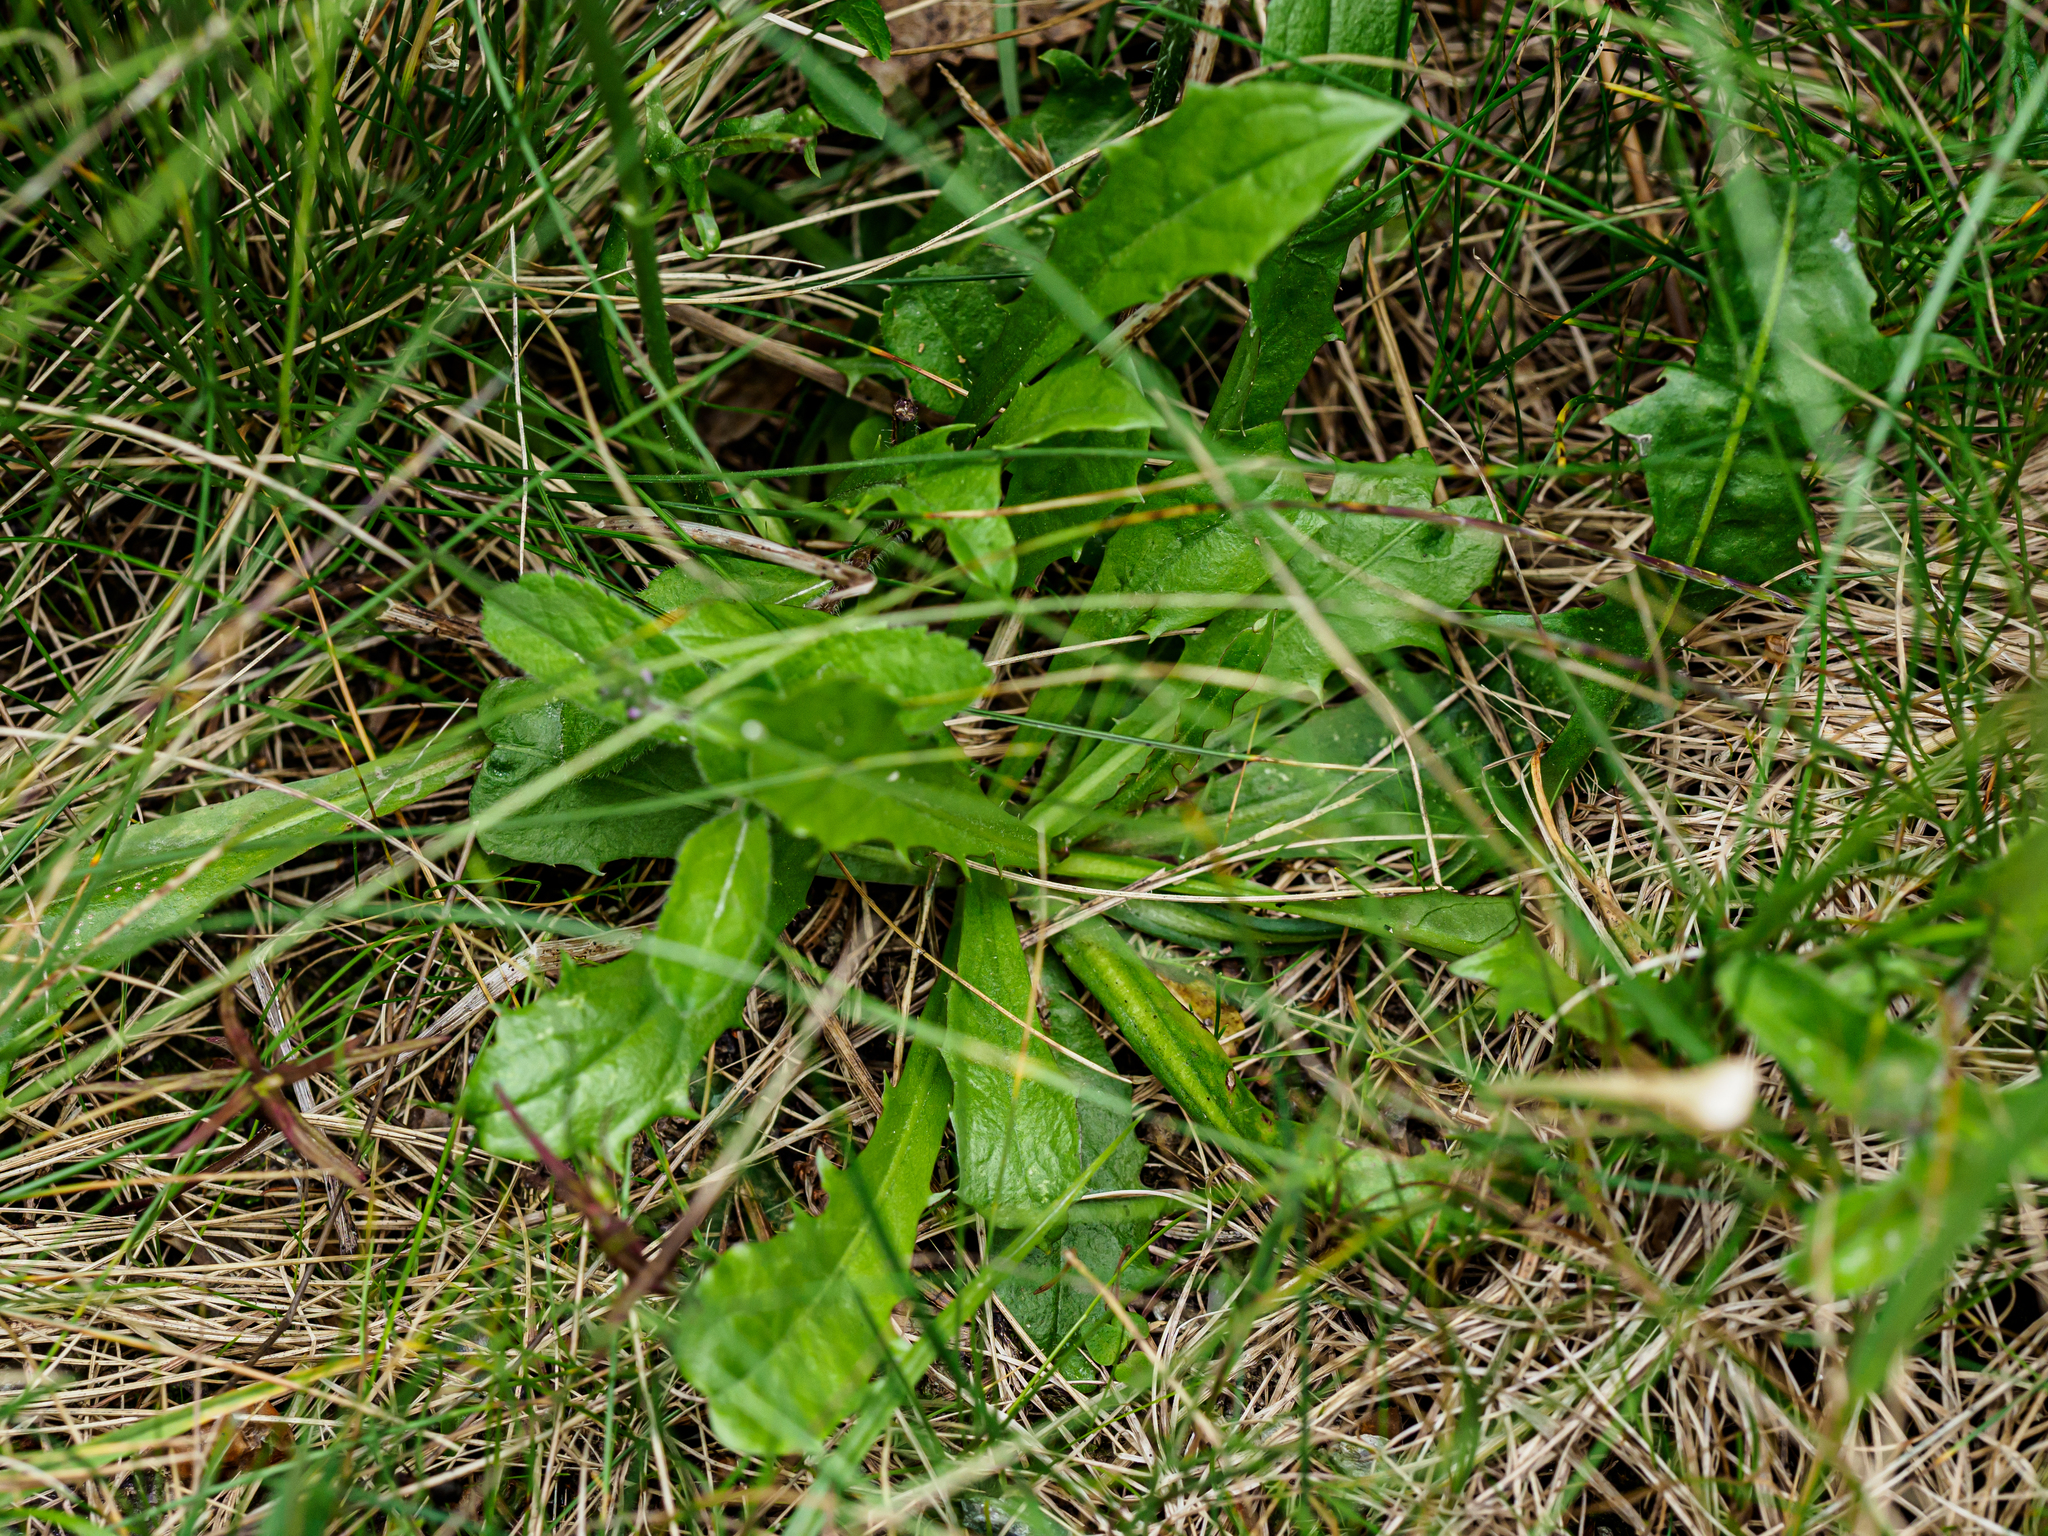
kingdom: Plantae
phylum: Tracheophyta
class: Magnoliopsida
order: Asterales
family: Asteraceae
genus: Crepis
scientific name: Crepis aurea
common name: Golden hawk's-beard
